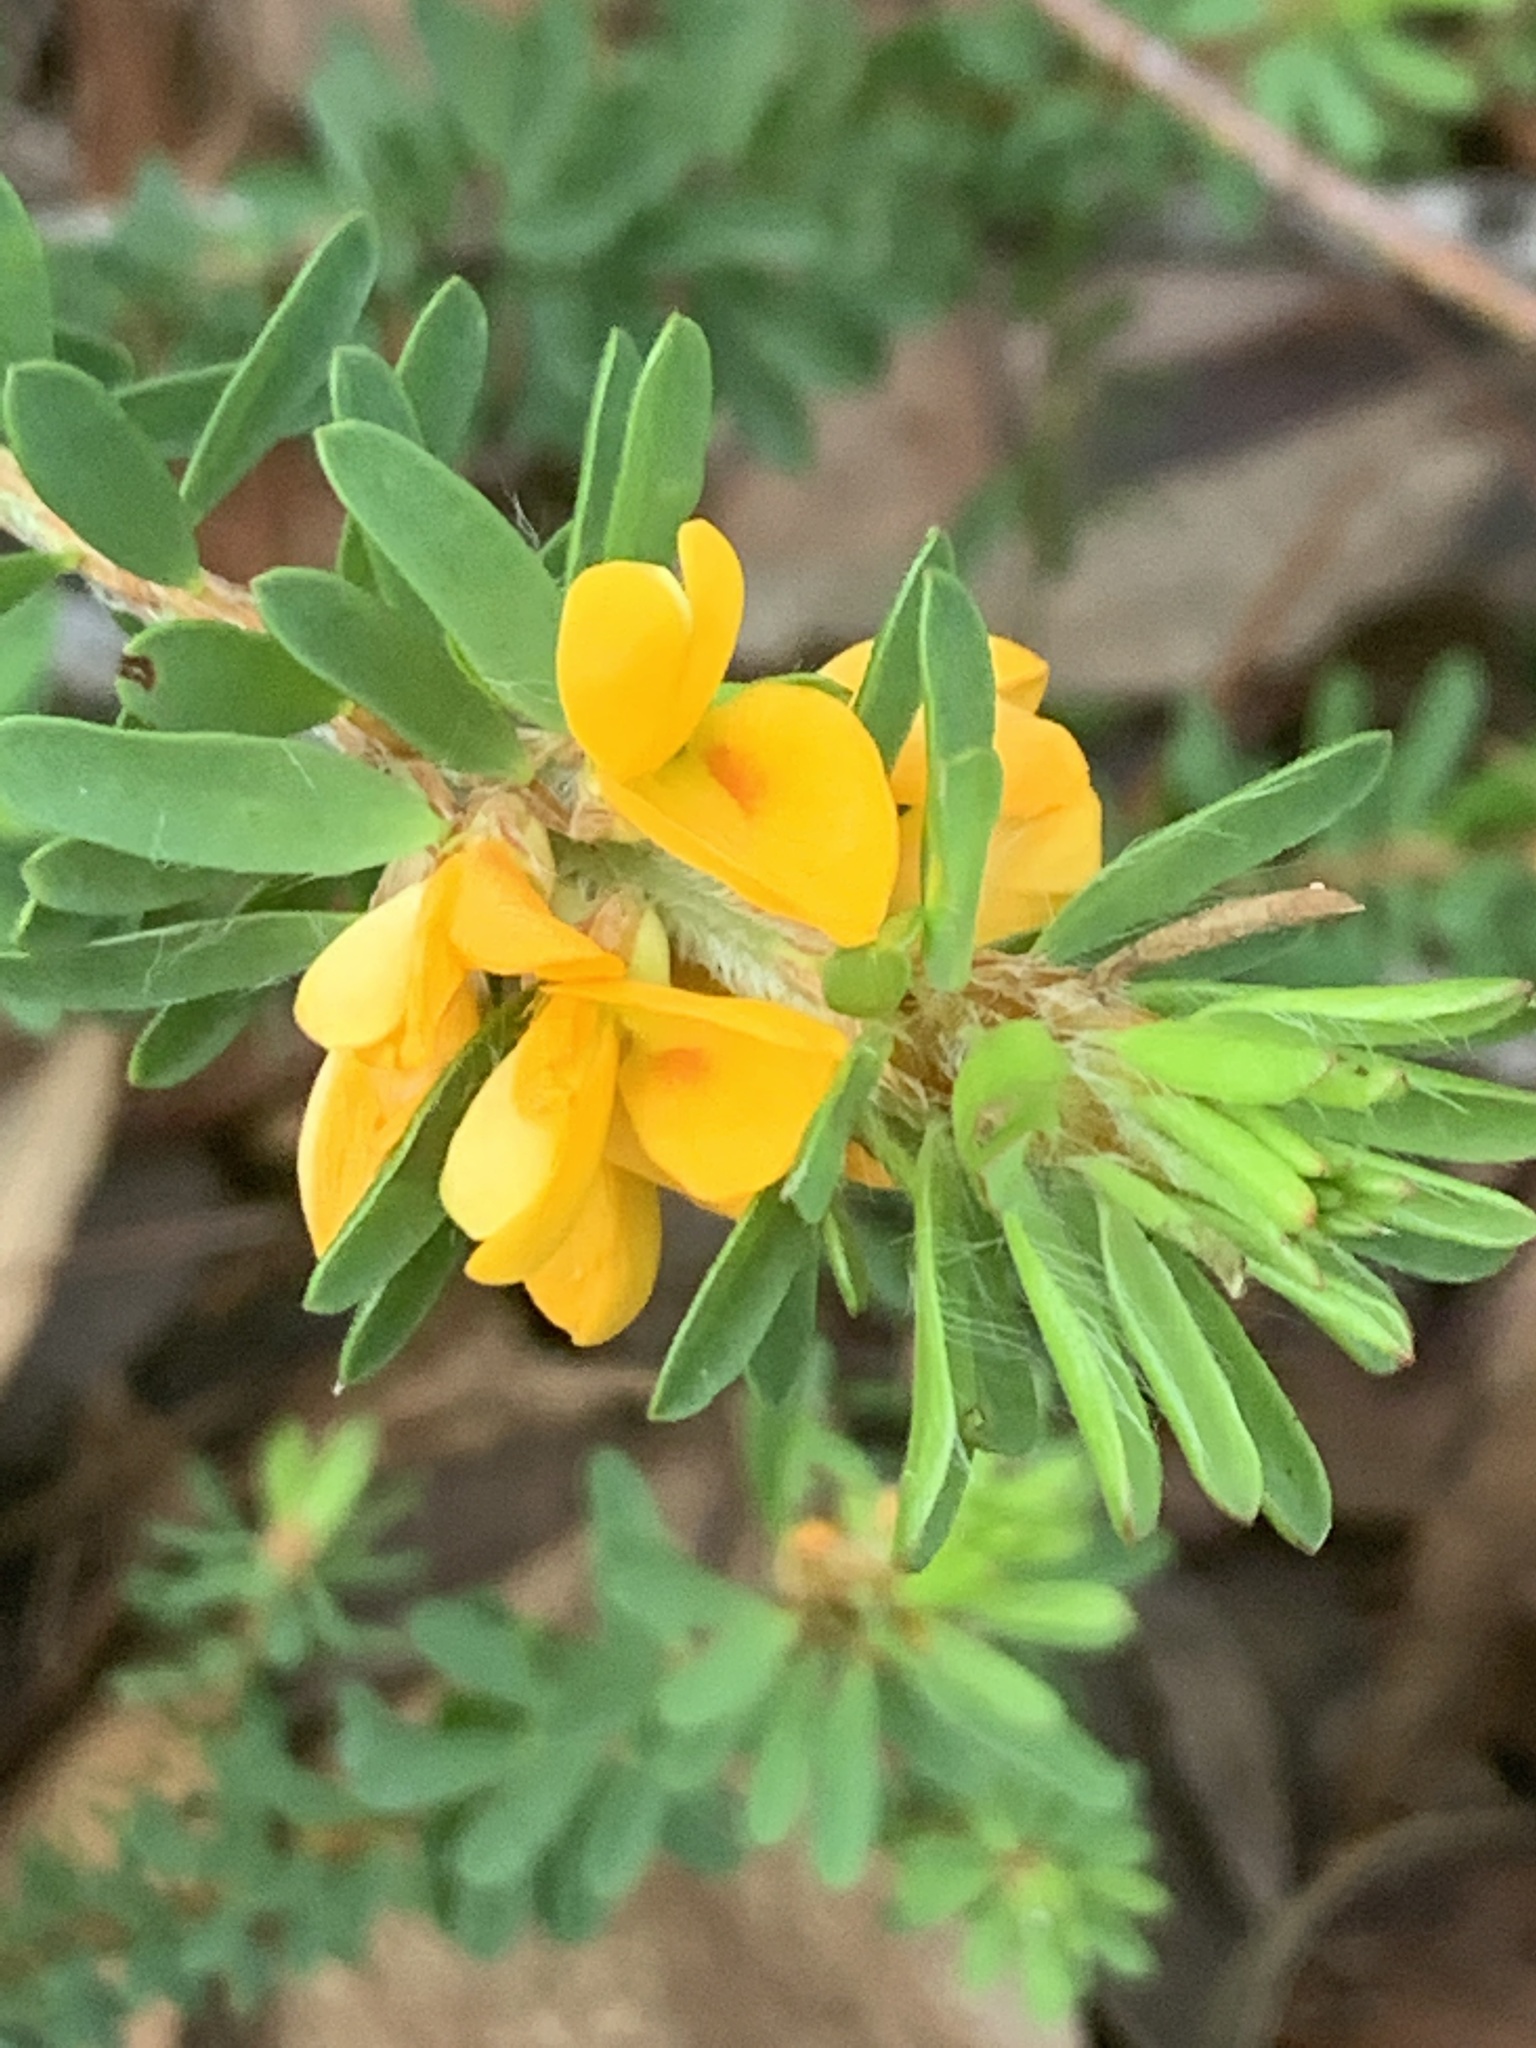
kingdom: Plantae
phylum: Tracheophyta
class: Magnoliopsida
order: Fabales
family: Fabaceae
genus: Pultenaea
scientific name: Pultenaea tuberculata
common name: Wreath bush-pea
